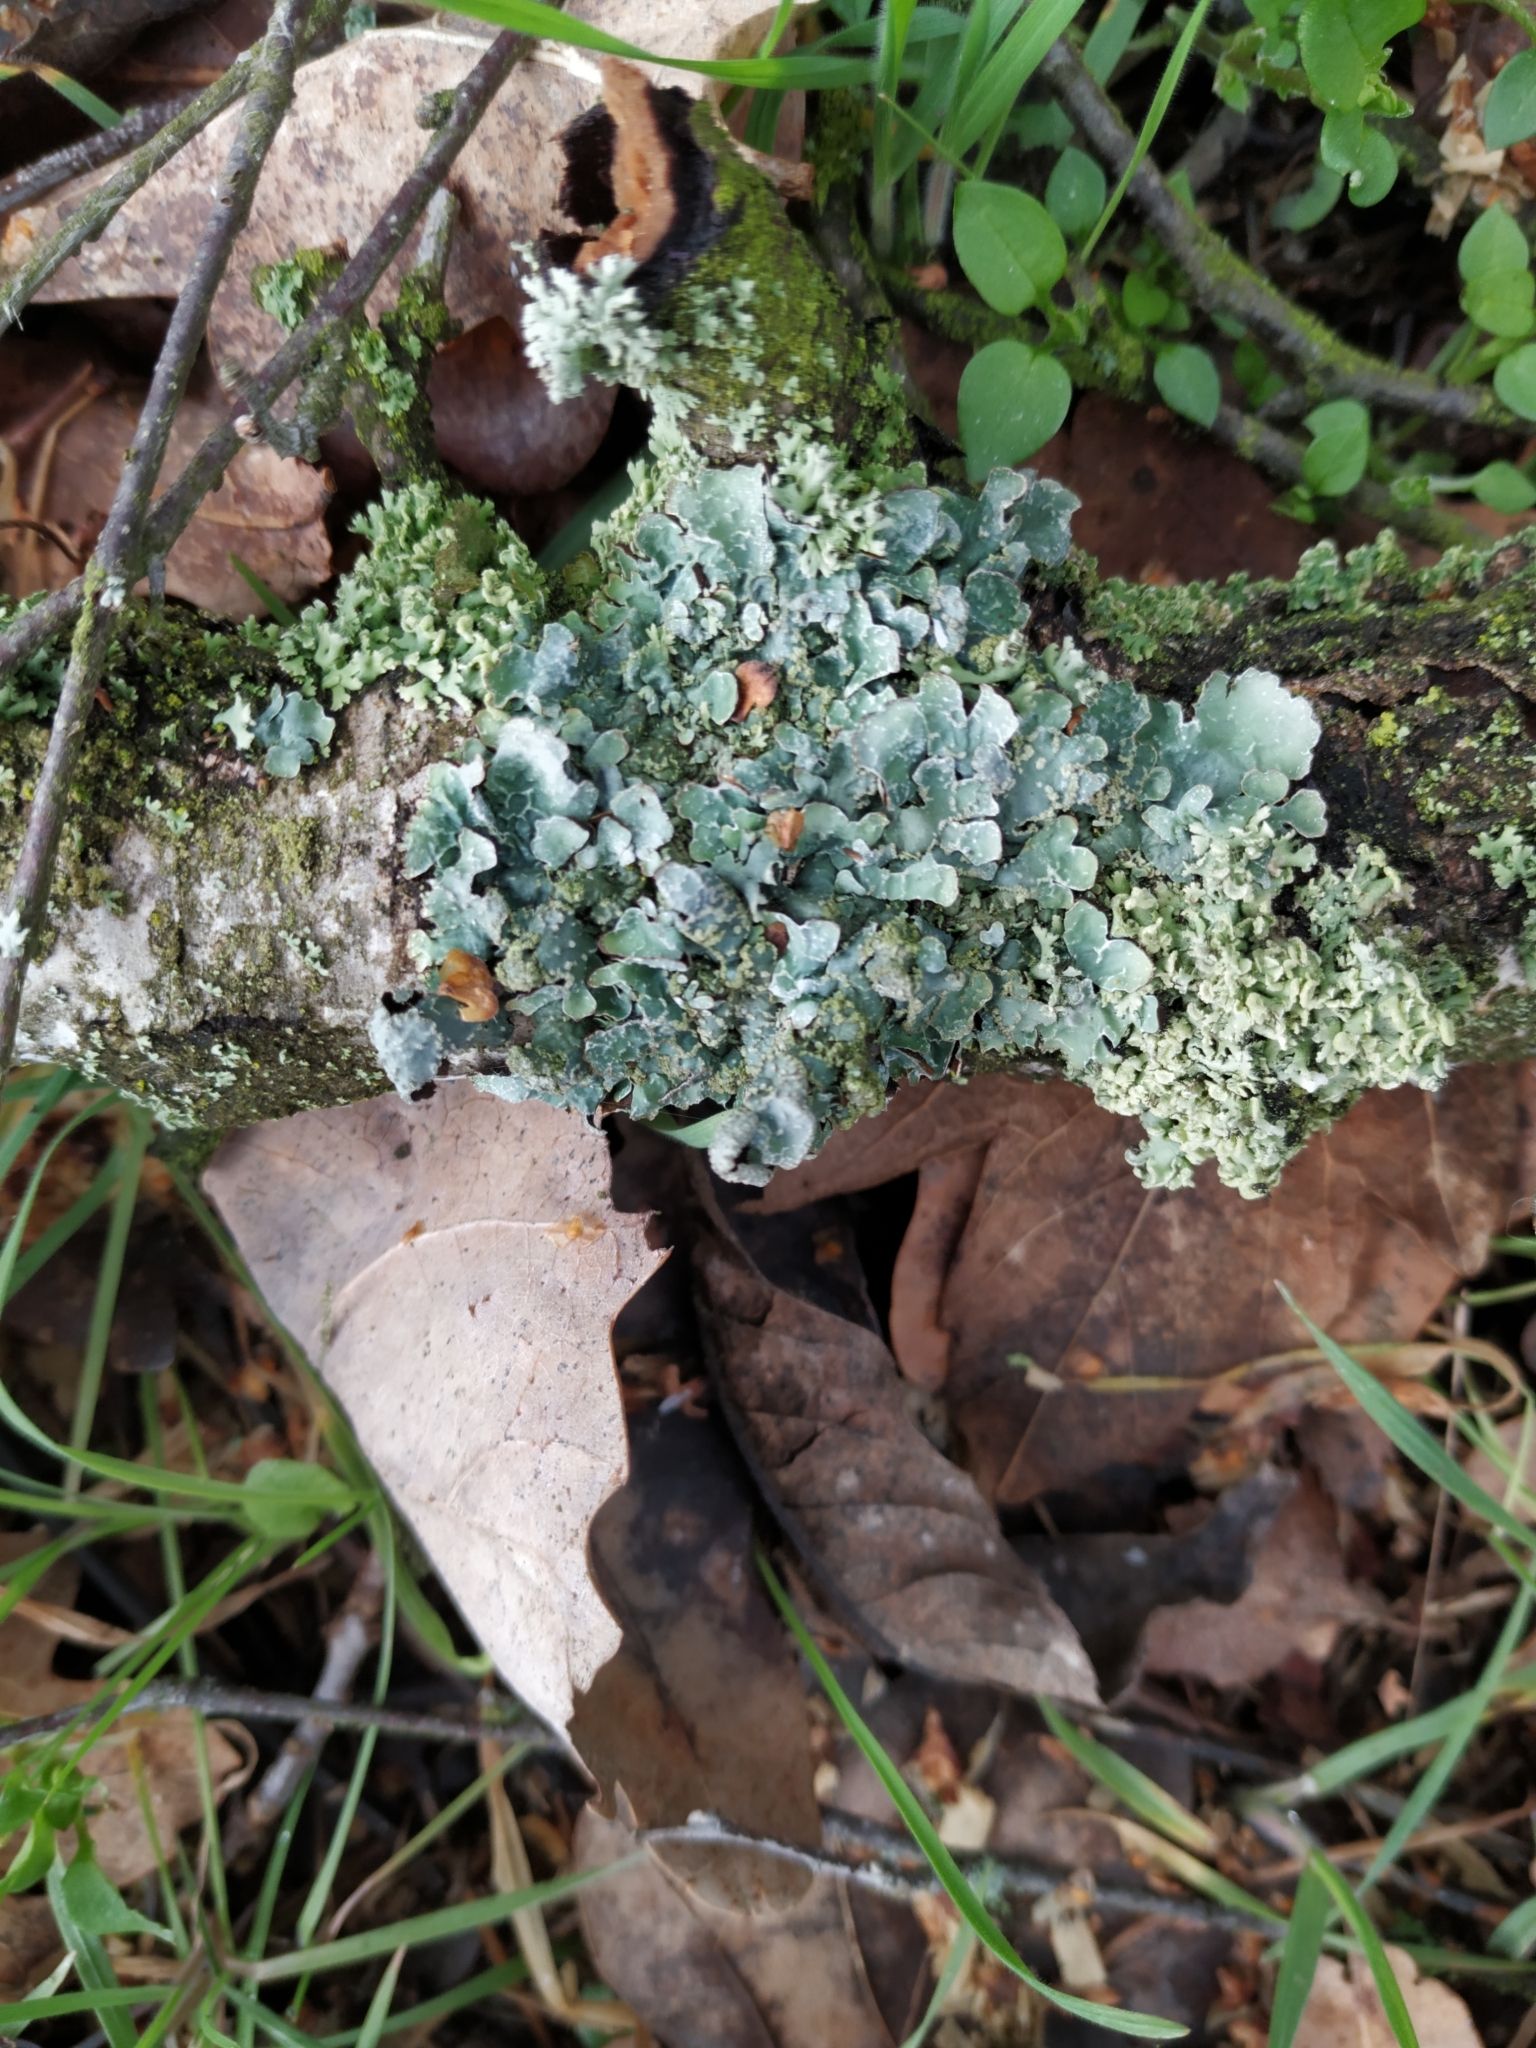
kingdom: Fungi
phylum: Ascomycota
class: Lecanoromycetes
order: Lecanorales
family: Parmeliaceae
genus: Parmelia
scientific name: Parmelia sulcata
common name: Netted shield lichen
